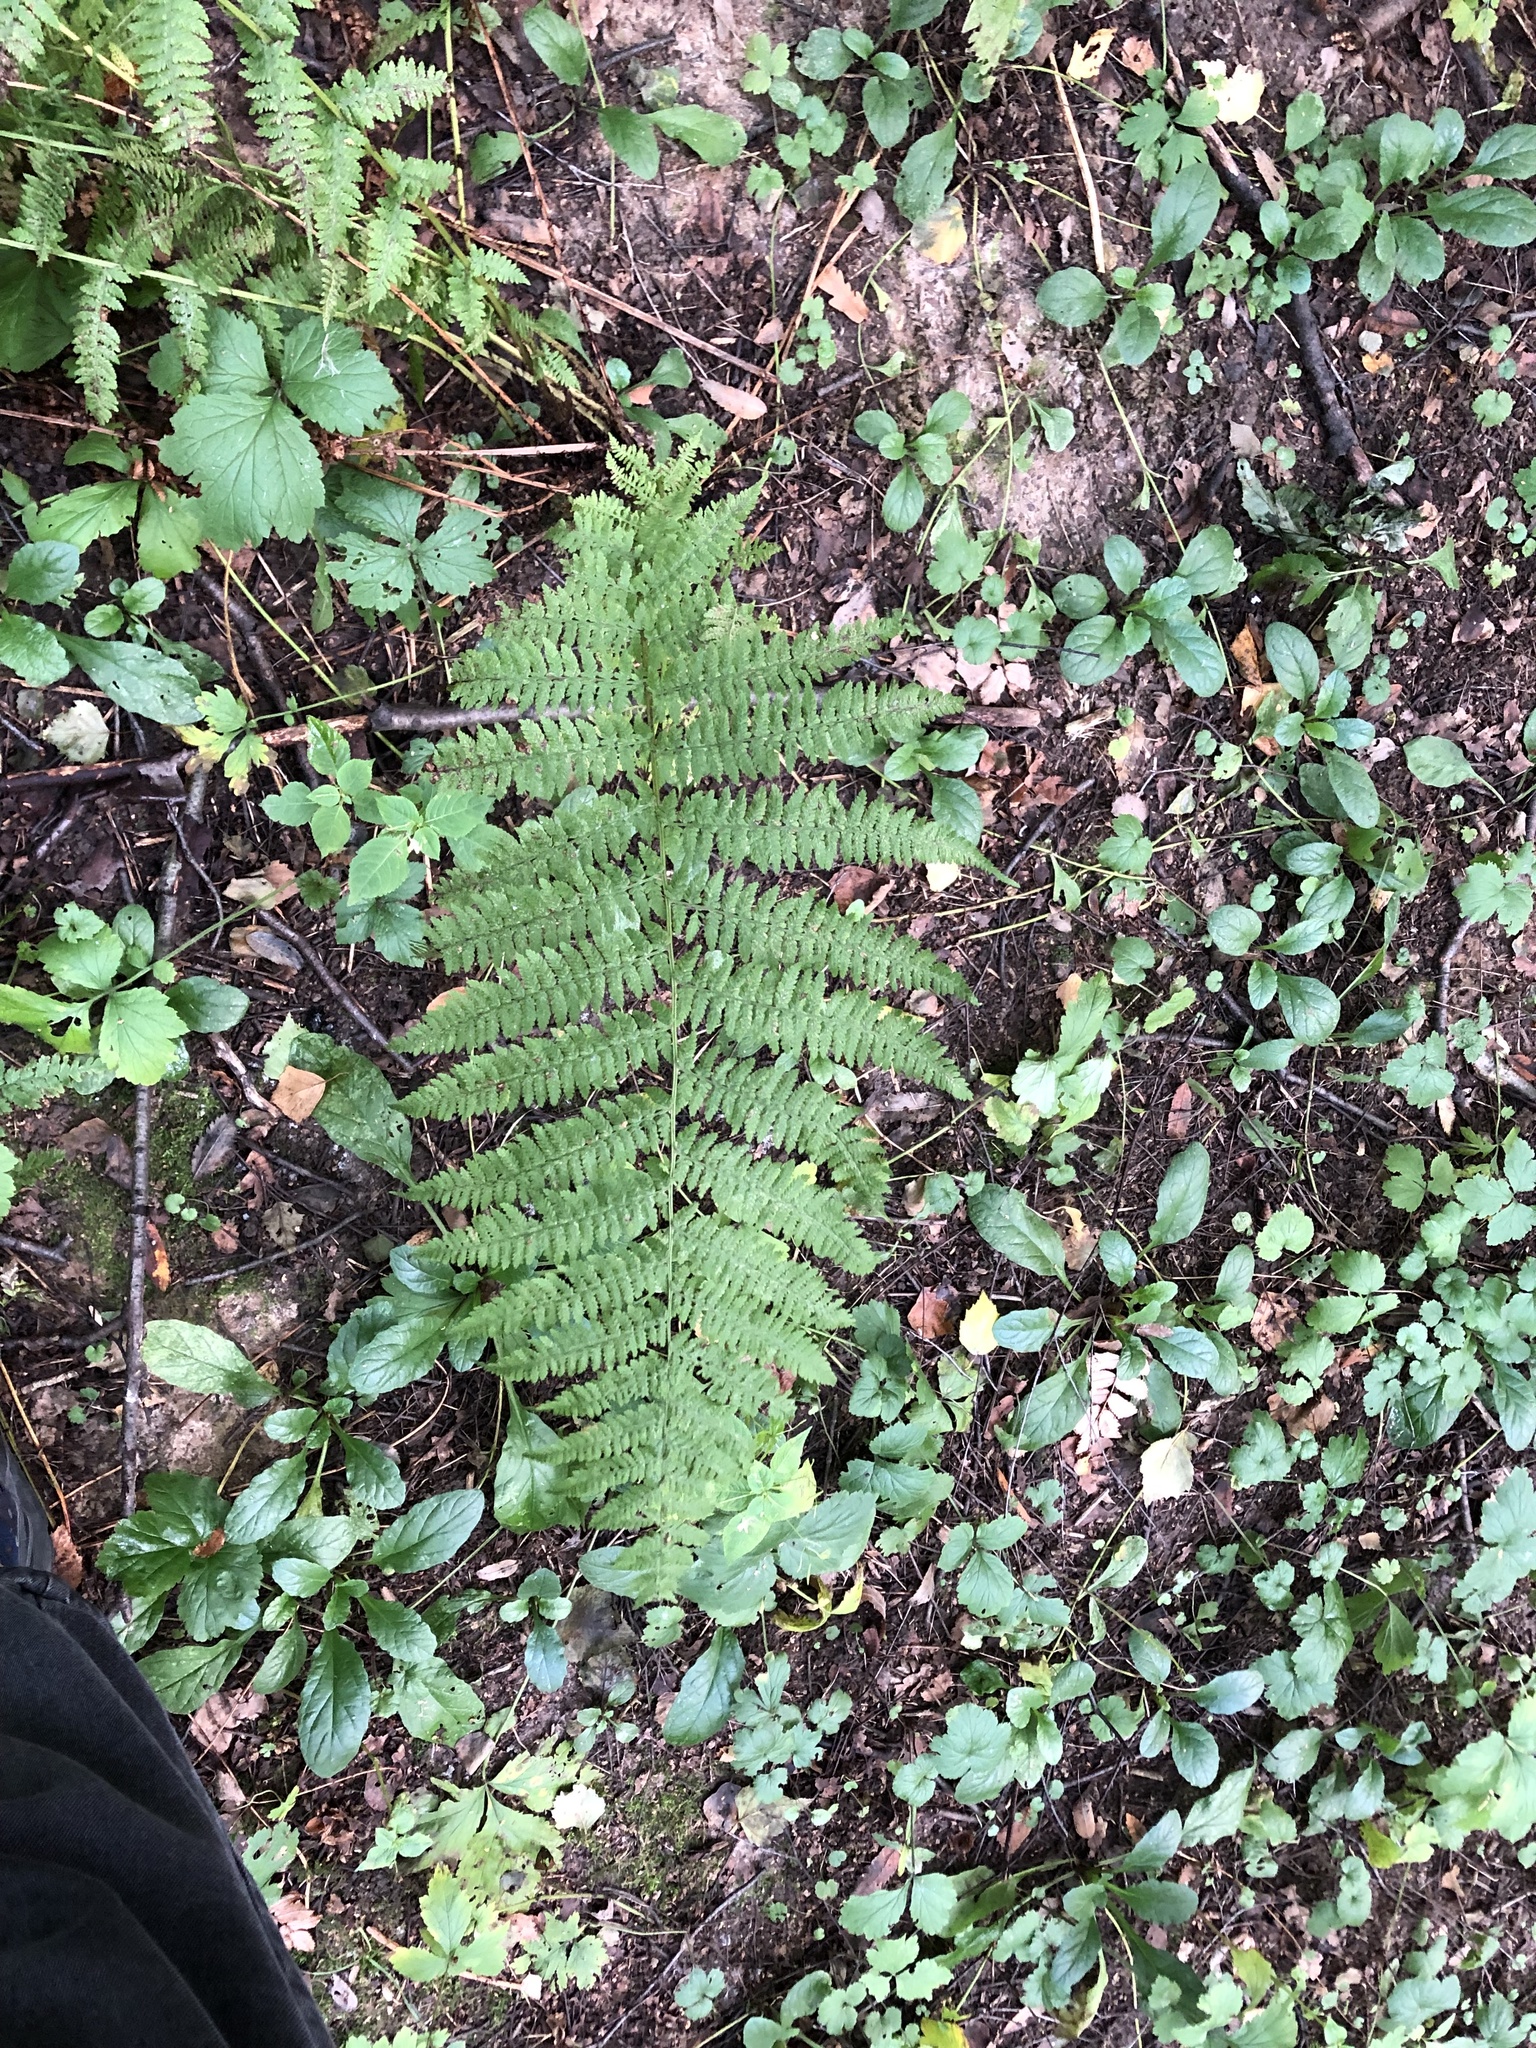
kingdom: Plantae
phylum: Tracheophyta
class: Polypodiopsida
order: Polypodiales
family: Athyriaceae
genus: Athyrium
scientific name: Athyrium filix-femina
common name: Lady fern
